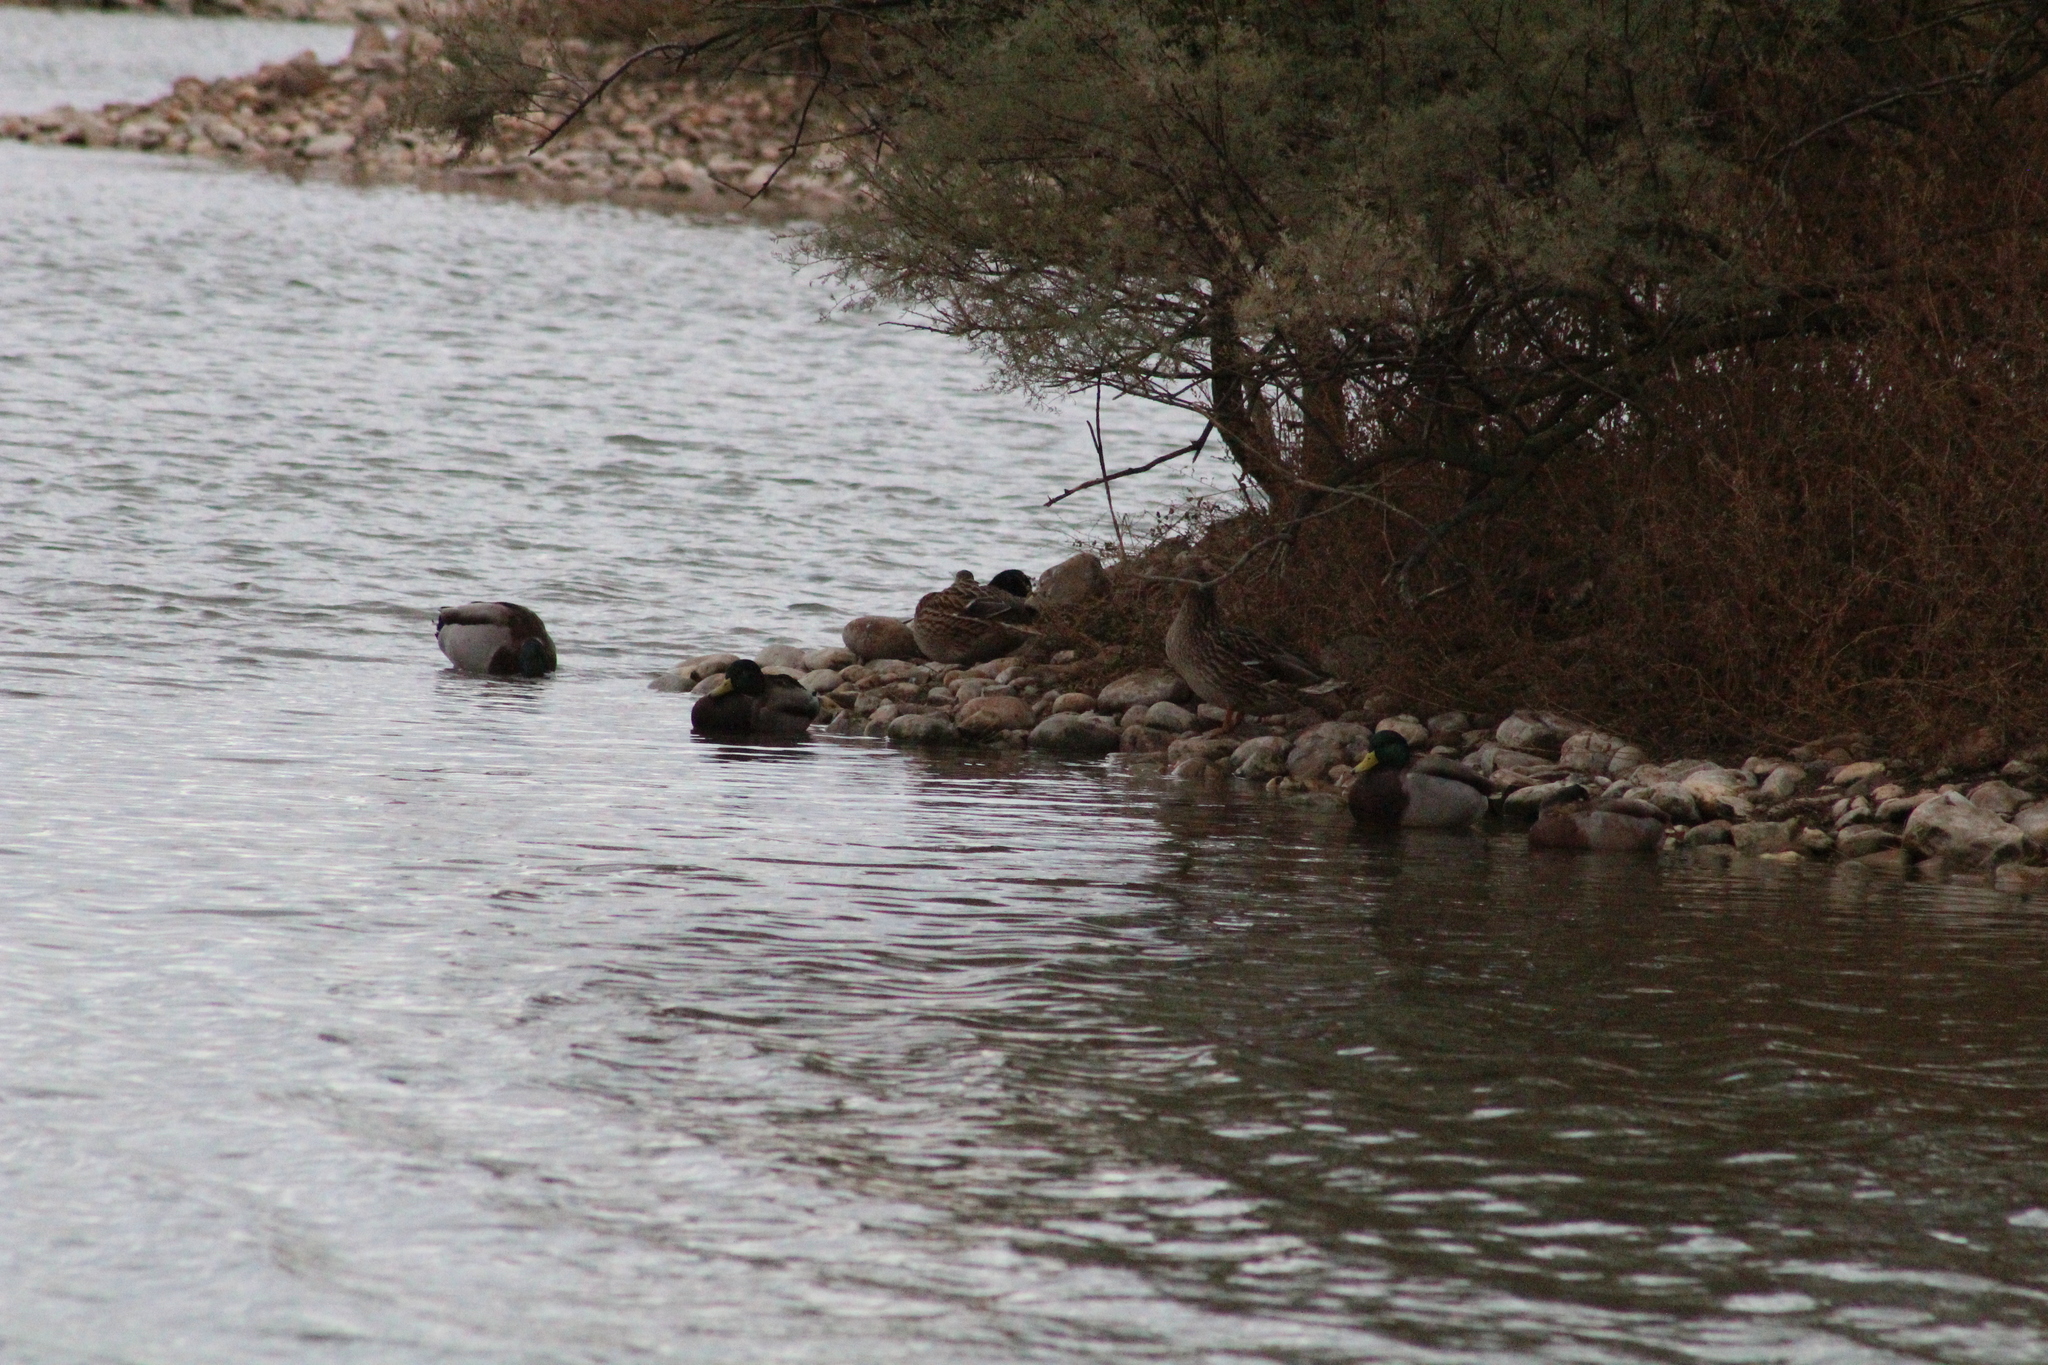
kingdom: Animalia
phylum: Chordata
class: Aves
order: Anseriformes
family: Anatidae
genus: Anas
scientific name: Anas platyrhynchos
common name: Mallard
